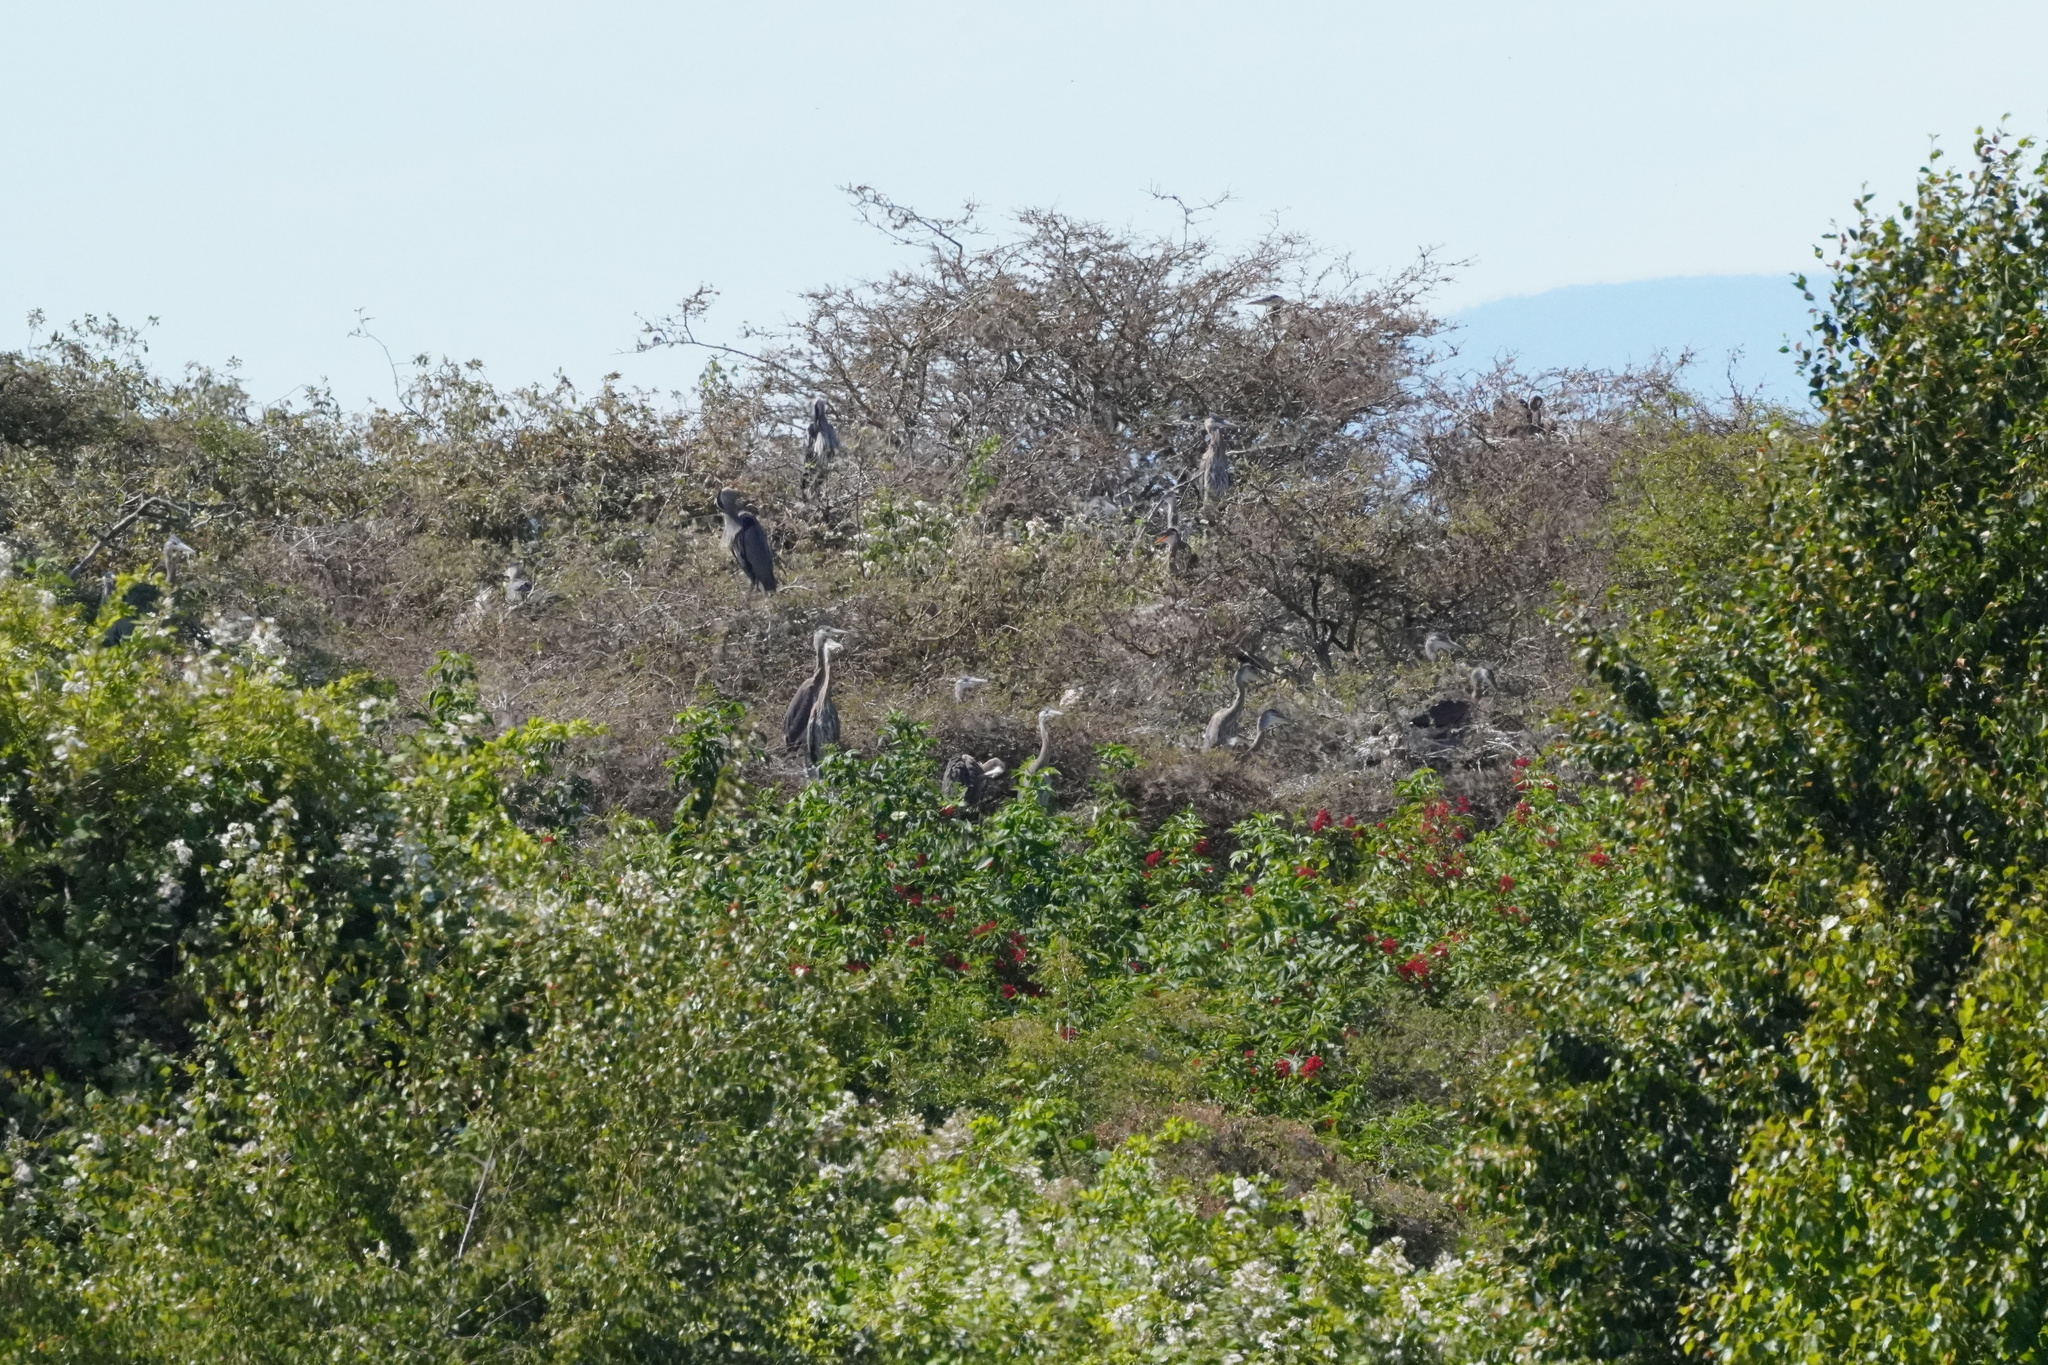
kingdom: Animalia
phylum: Chordata
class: Aves
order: Pelecaniformes
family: Ardeidae
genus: Ardea
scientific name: Ardea herodias
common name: Great blue heron
